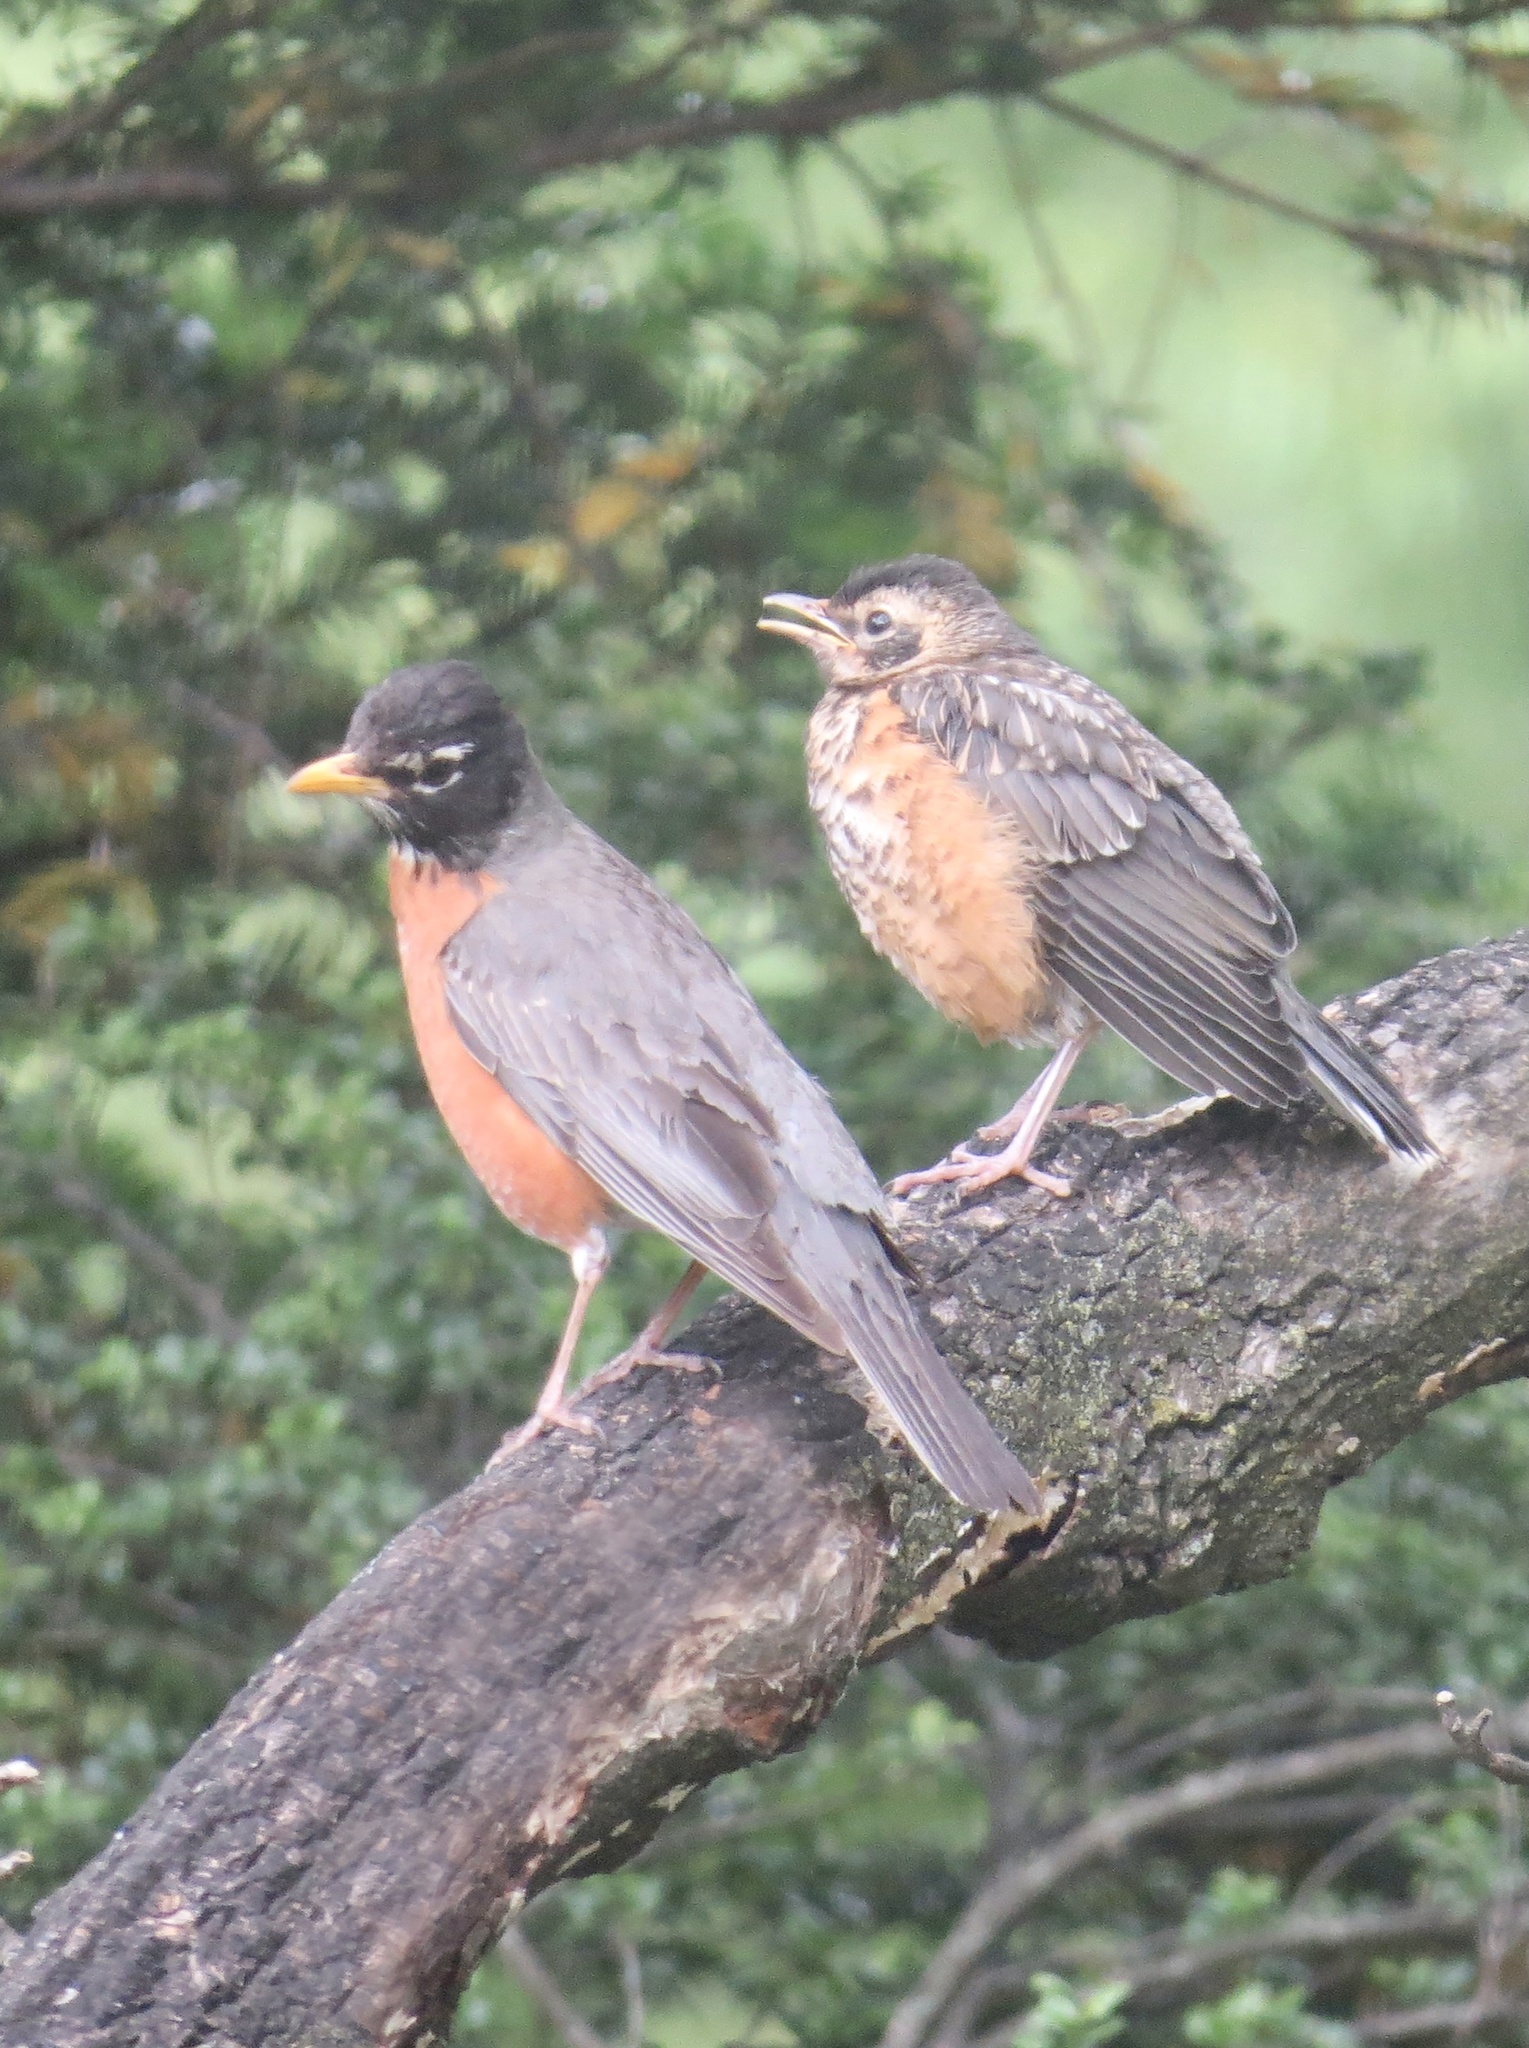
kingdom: Animalia
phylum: Chordata
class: Aves
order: Passeriformes
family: Turdidae
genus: Turdus
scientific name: Turdus migratorius
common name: American robin
